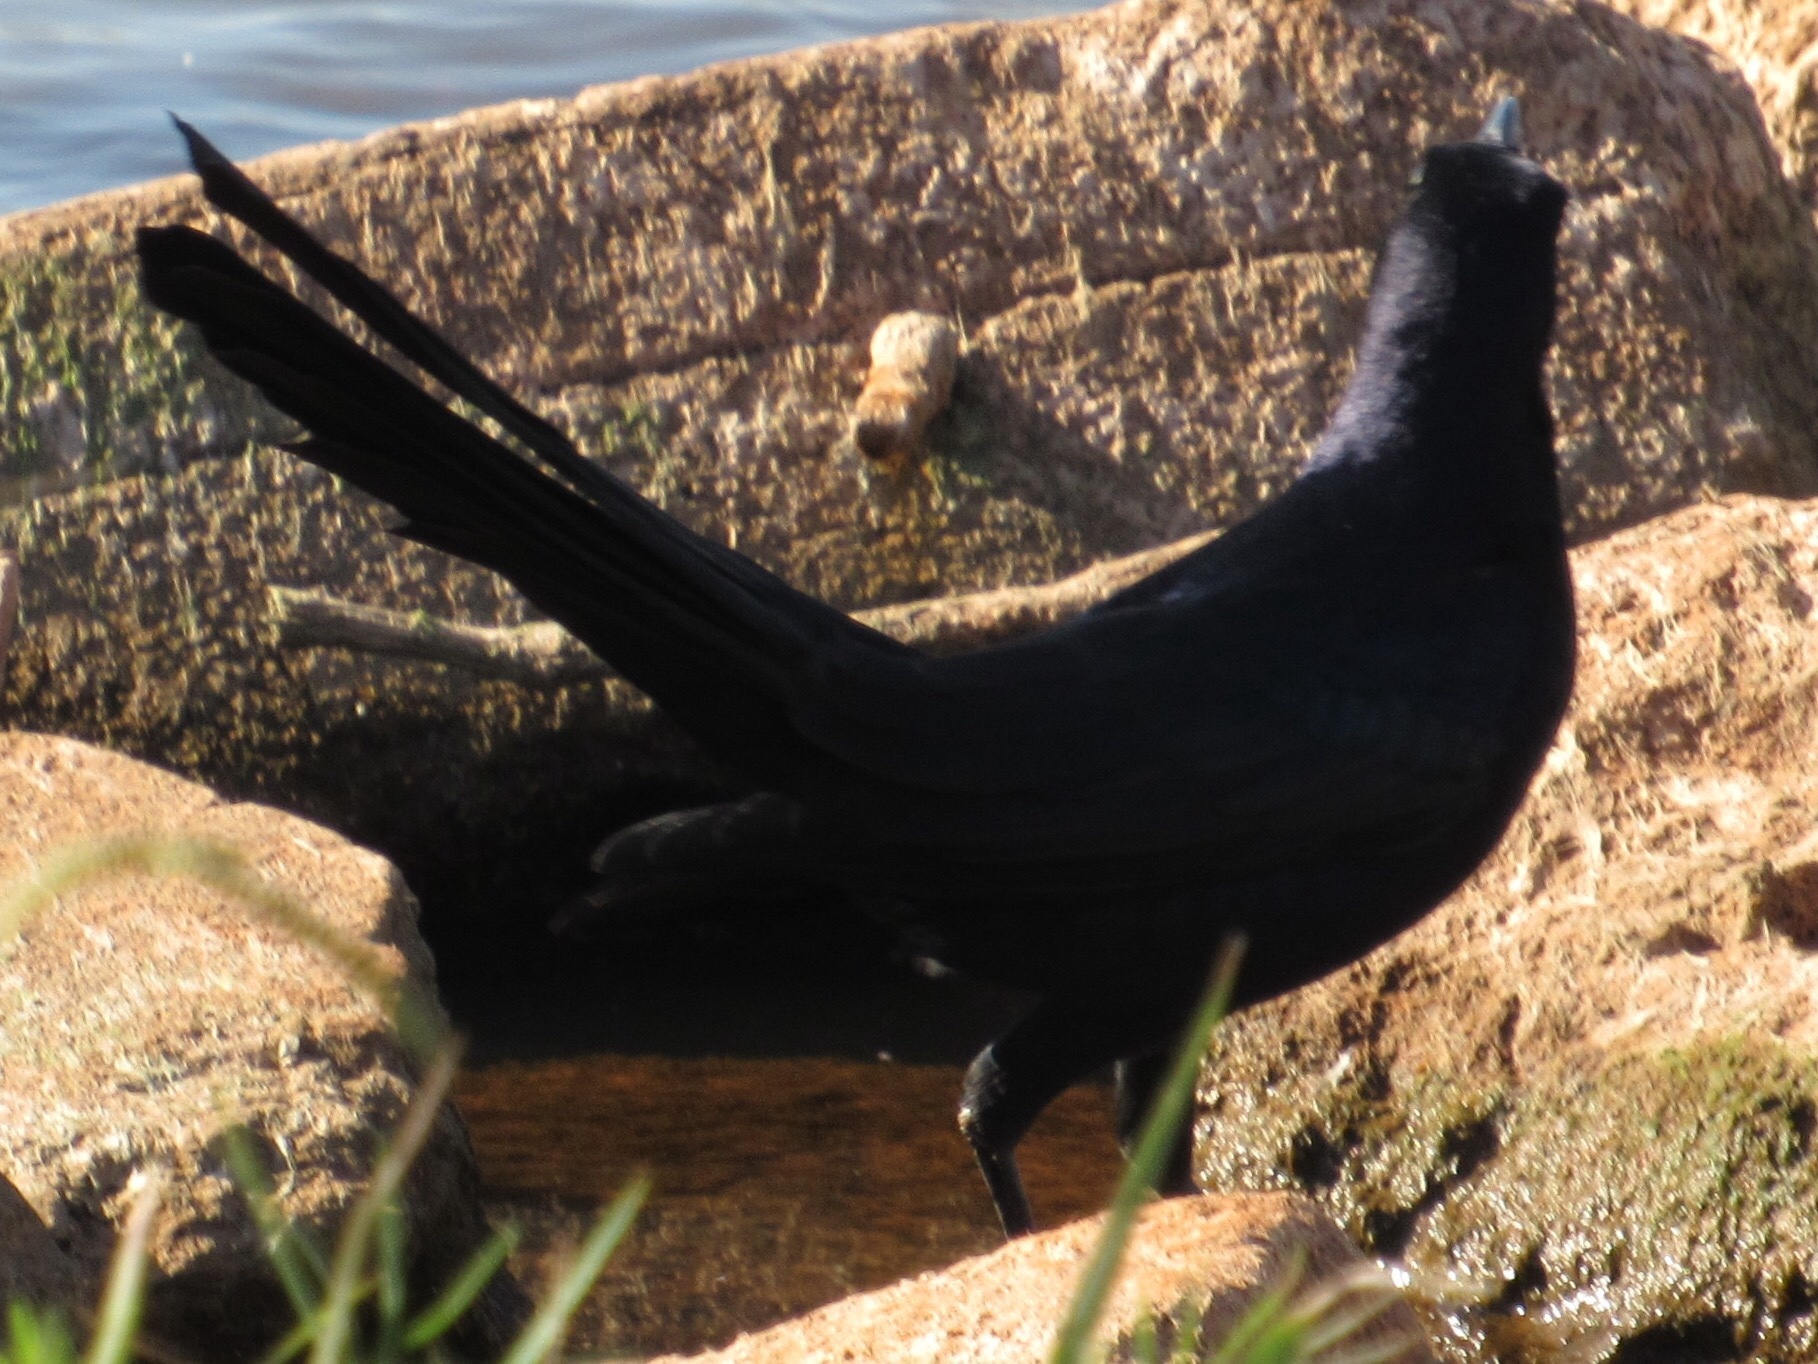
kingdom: Animalia
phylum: Chordata
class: Aves
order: Passeriformes
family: Icteridae
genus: Quiscalus
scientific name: Quiscalus mexicanus
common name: Great-tailed grackle
